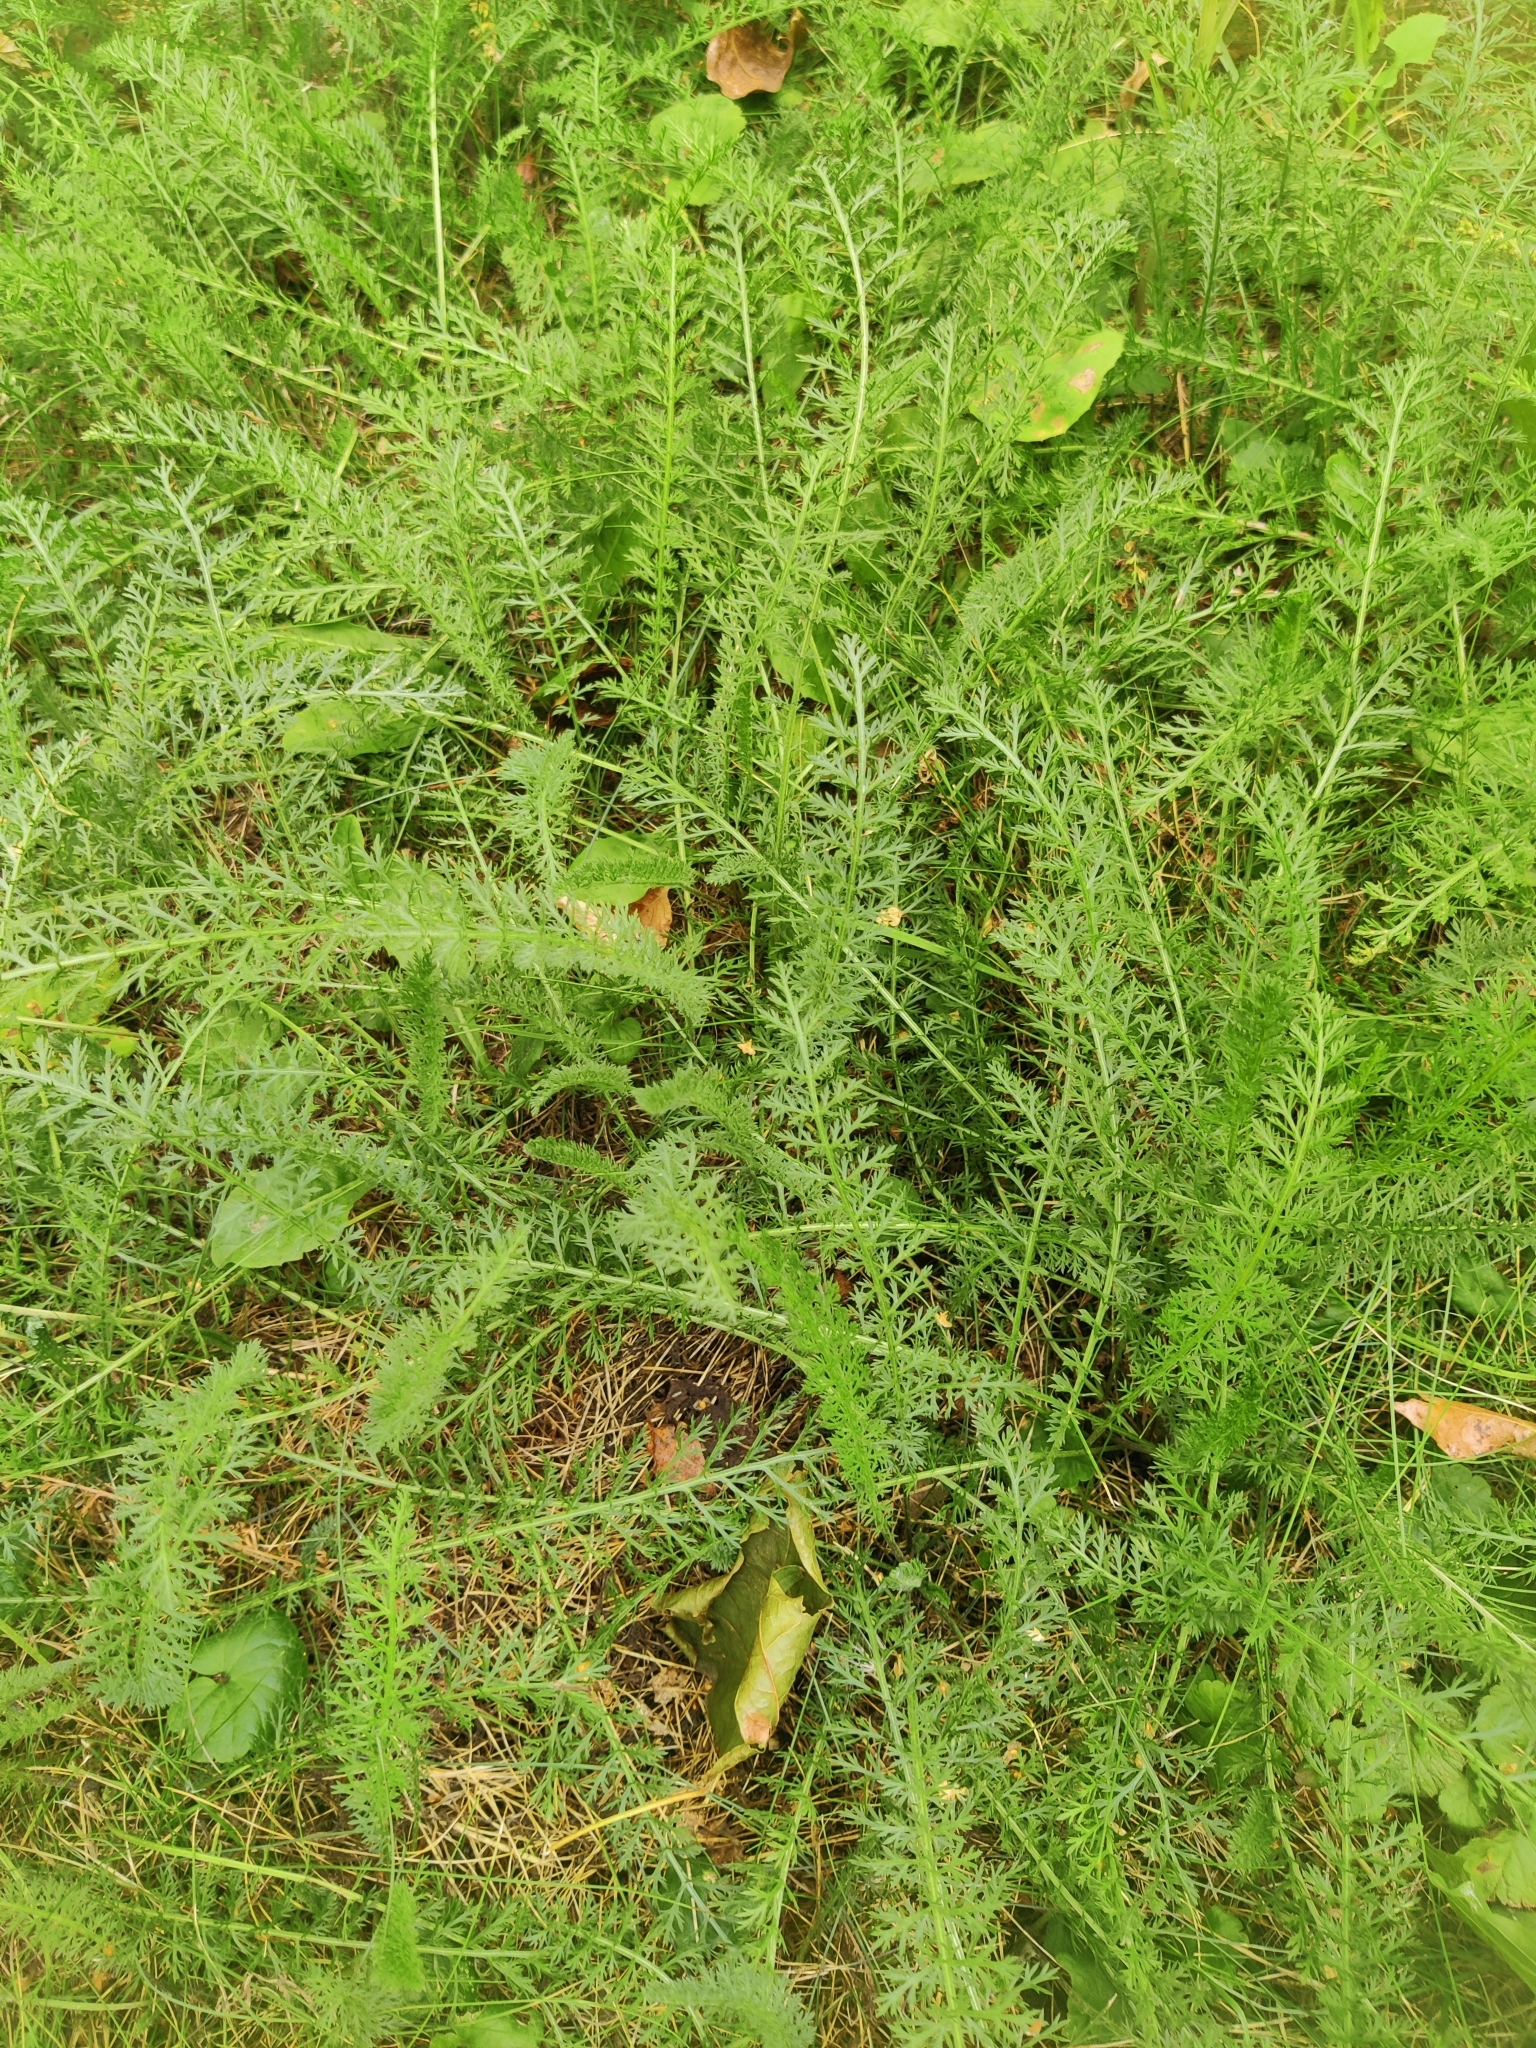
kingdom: Plantae
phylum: Tracheophyta
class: Magnoliopsida
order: Asterales
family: Asteraceae
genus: Achillea
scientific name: Achillea millefolium
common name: Yarrow
